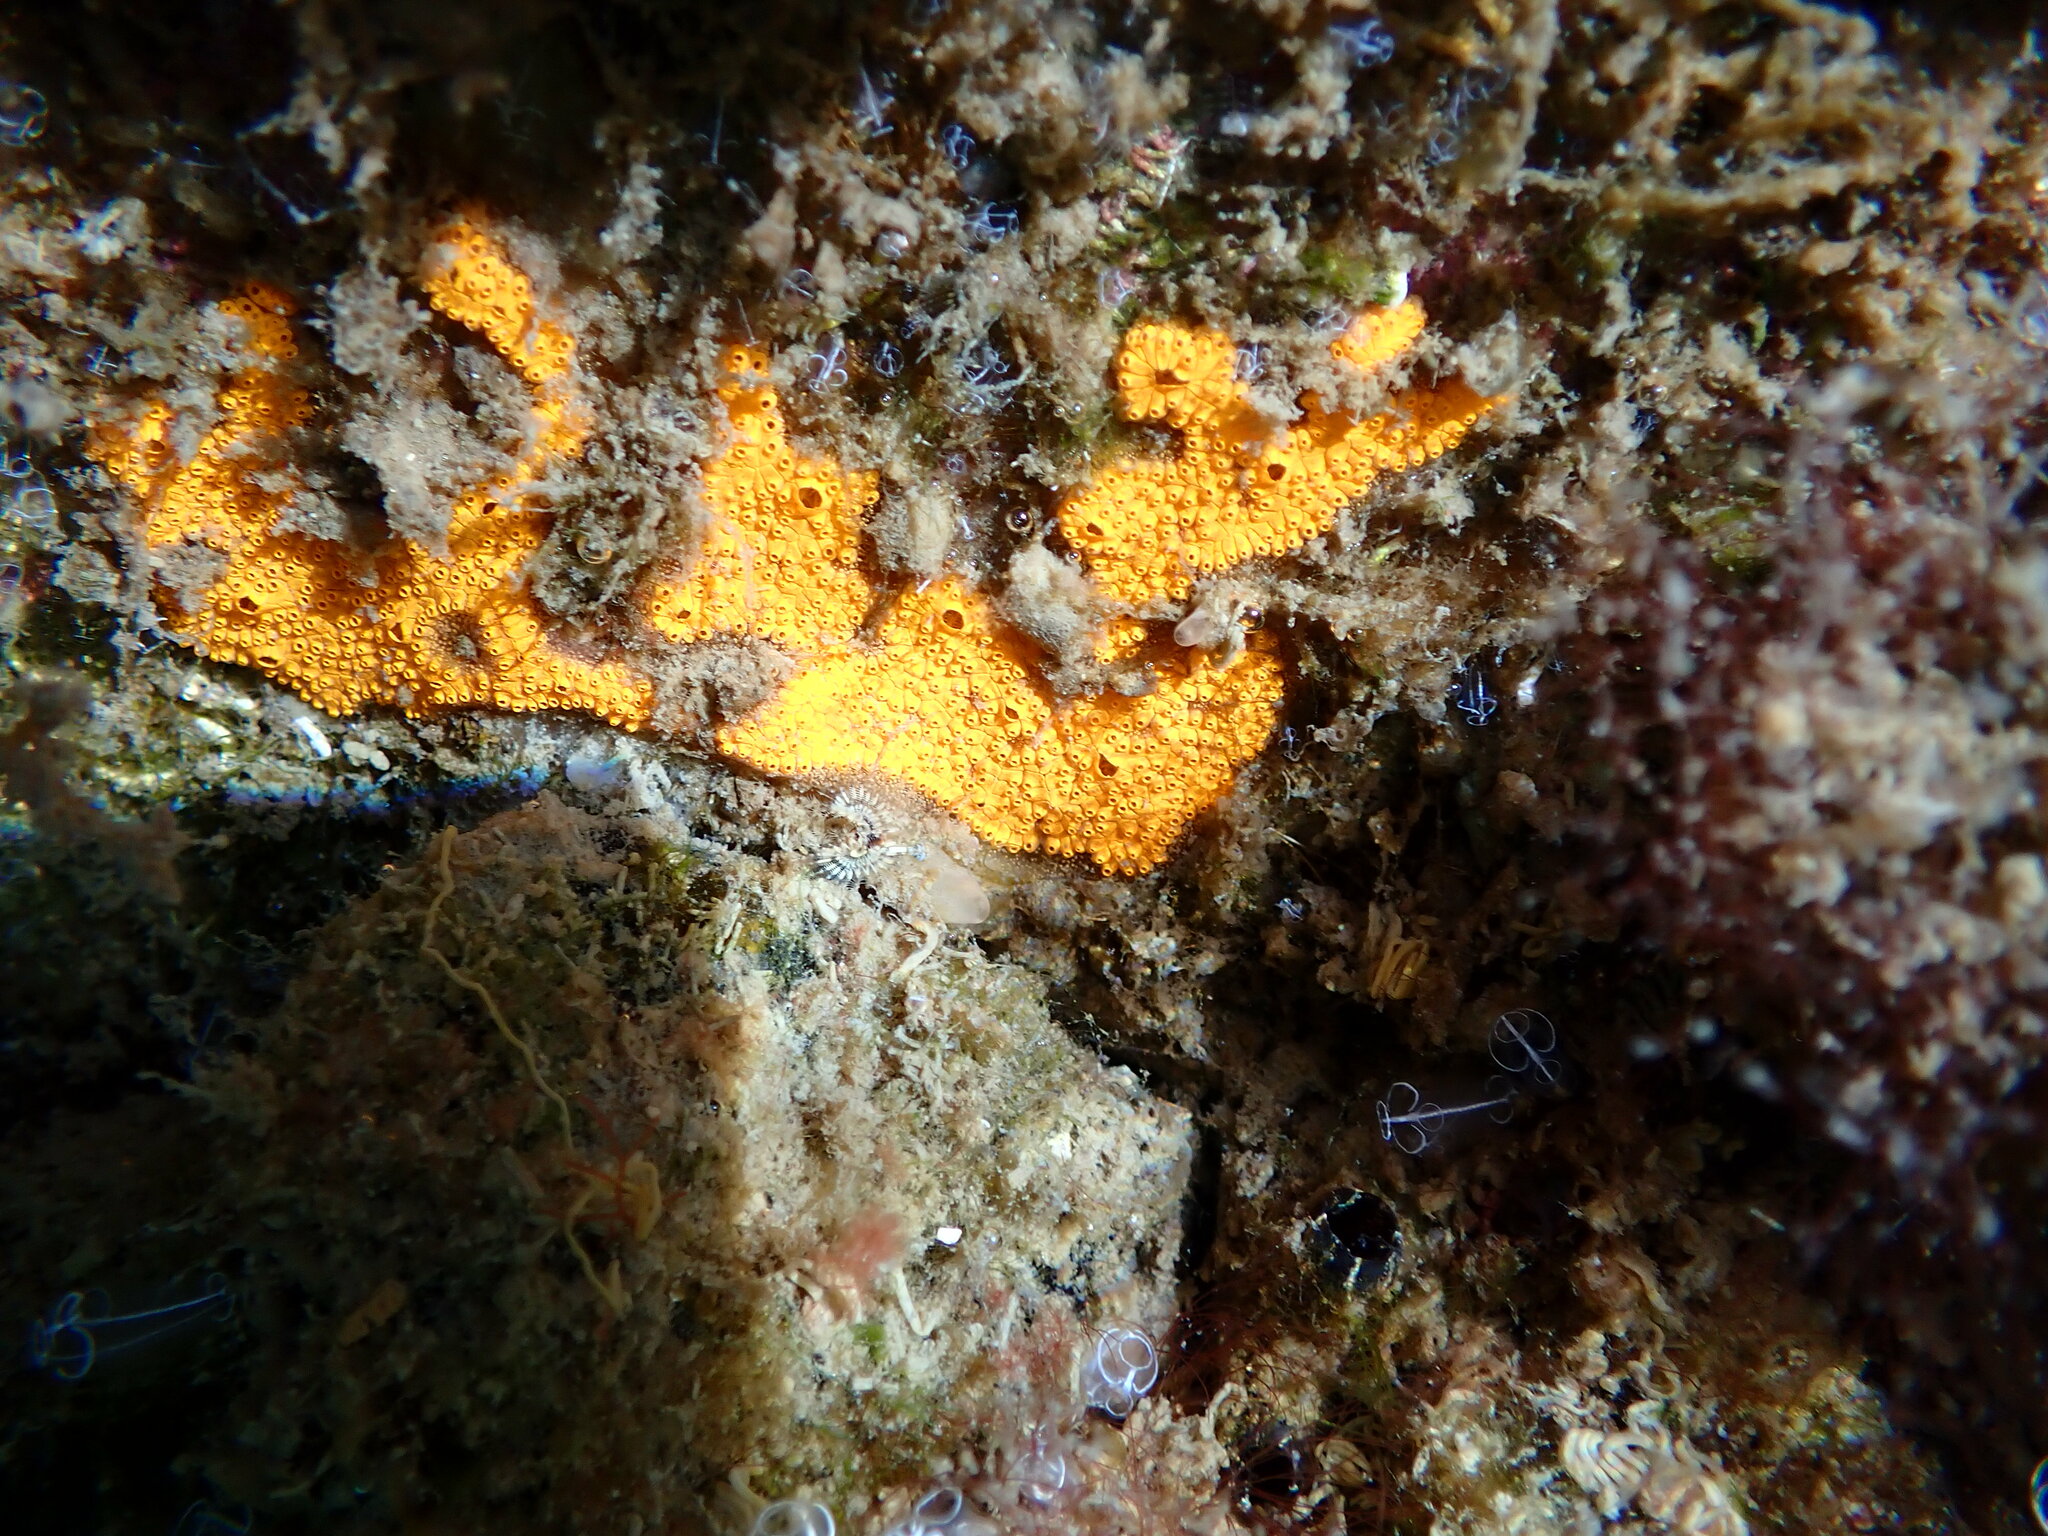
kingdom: Animalia
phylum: Chordata
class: Ascidiacea
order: Stolidobranchia
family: Styelidae
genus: Botrylloides
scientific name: Botrylloides violaceus
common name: Colonial sea squirt
